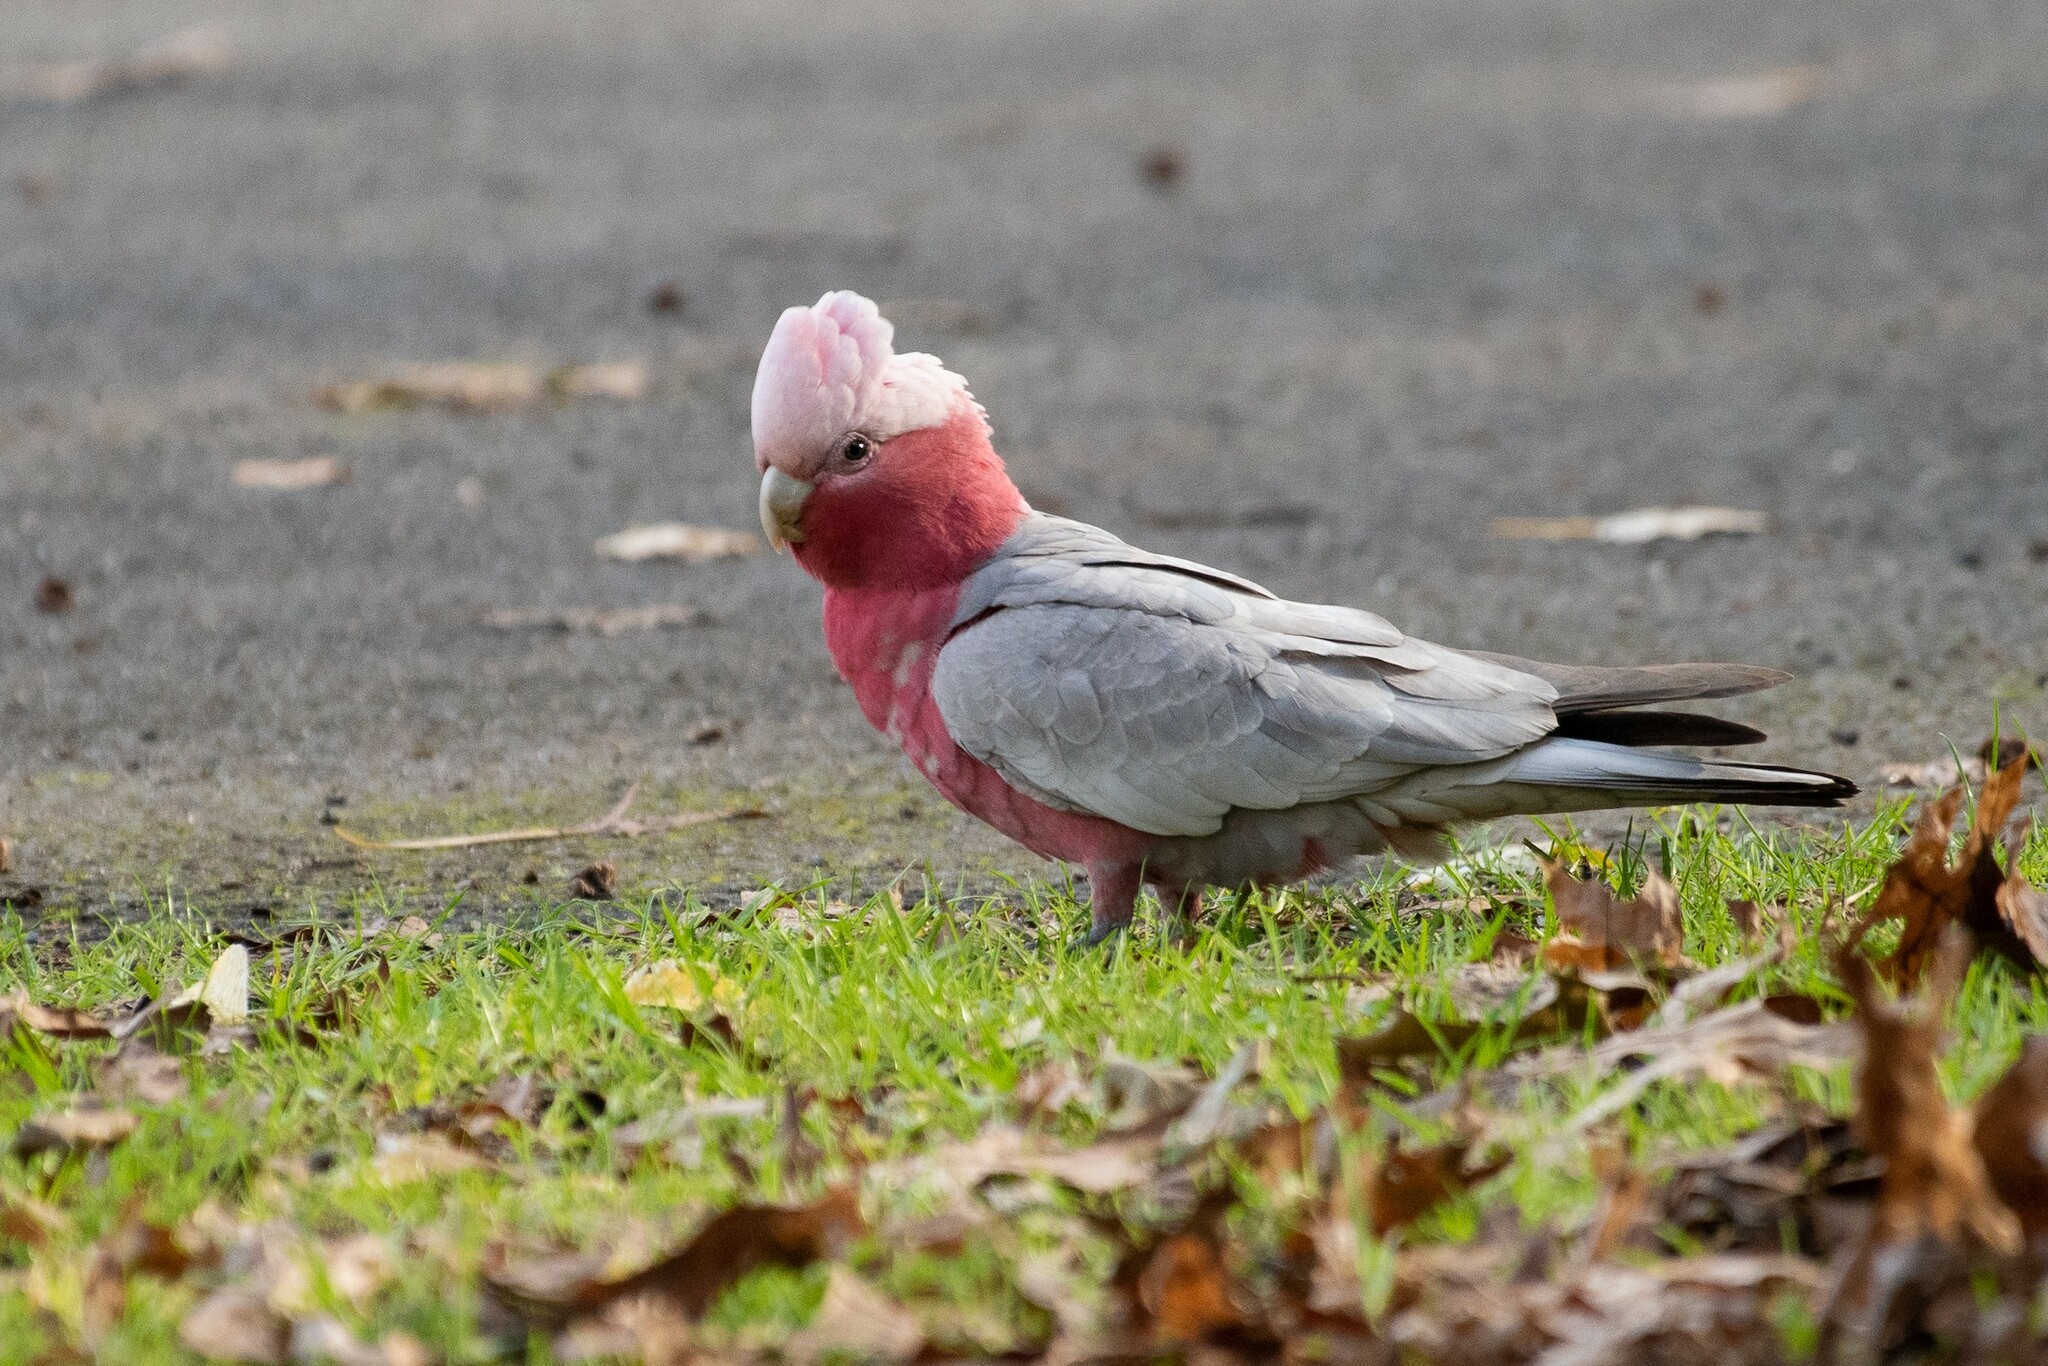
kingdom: Animalia
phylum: Chordata
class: Aves
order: Psittaciformes
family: Psittacidae
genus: Eolophus
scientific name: Eolophus roseicapilla
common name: Galah
